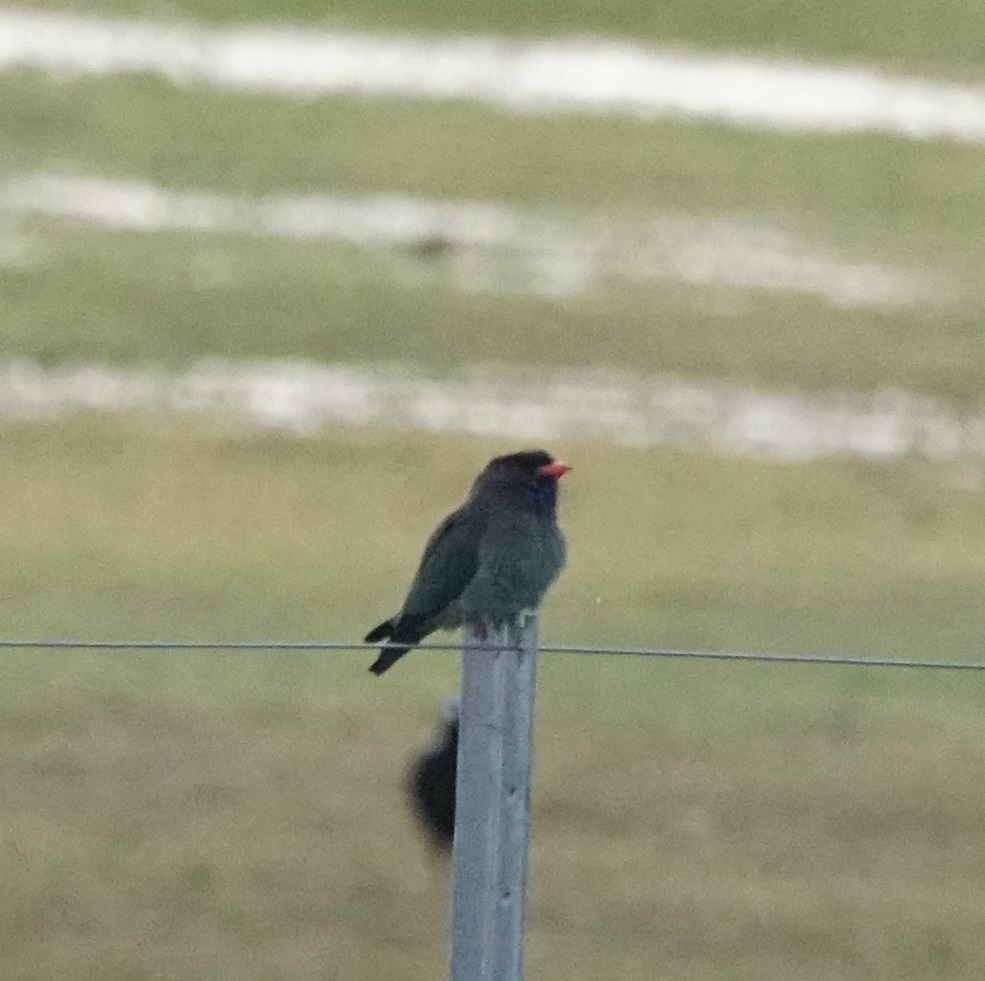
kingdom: Animalia
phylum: Chordata
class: Aves
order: Coraciiformes
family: Coraciidae
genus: Eurystomus
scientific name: Eurystomus orientalis
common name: Oriental dollarbird
